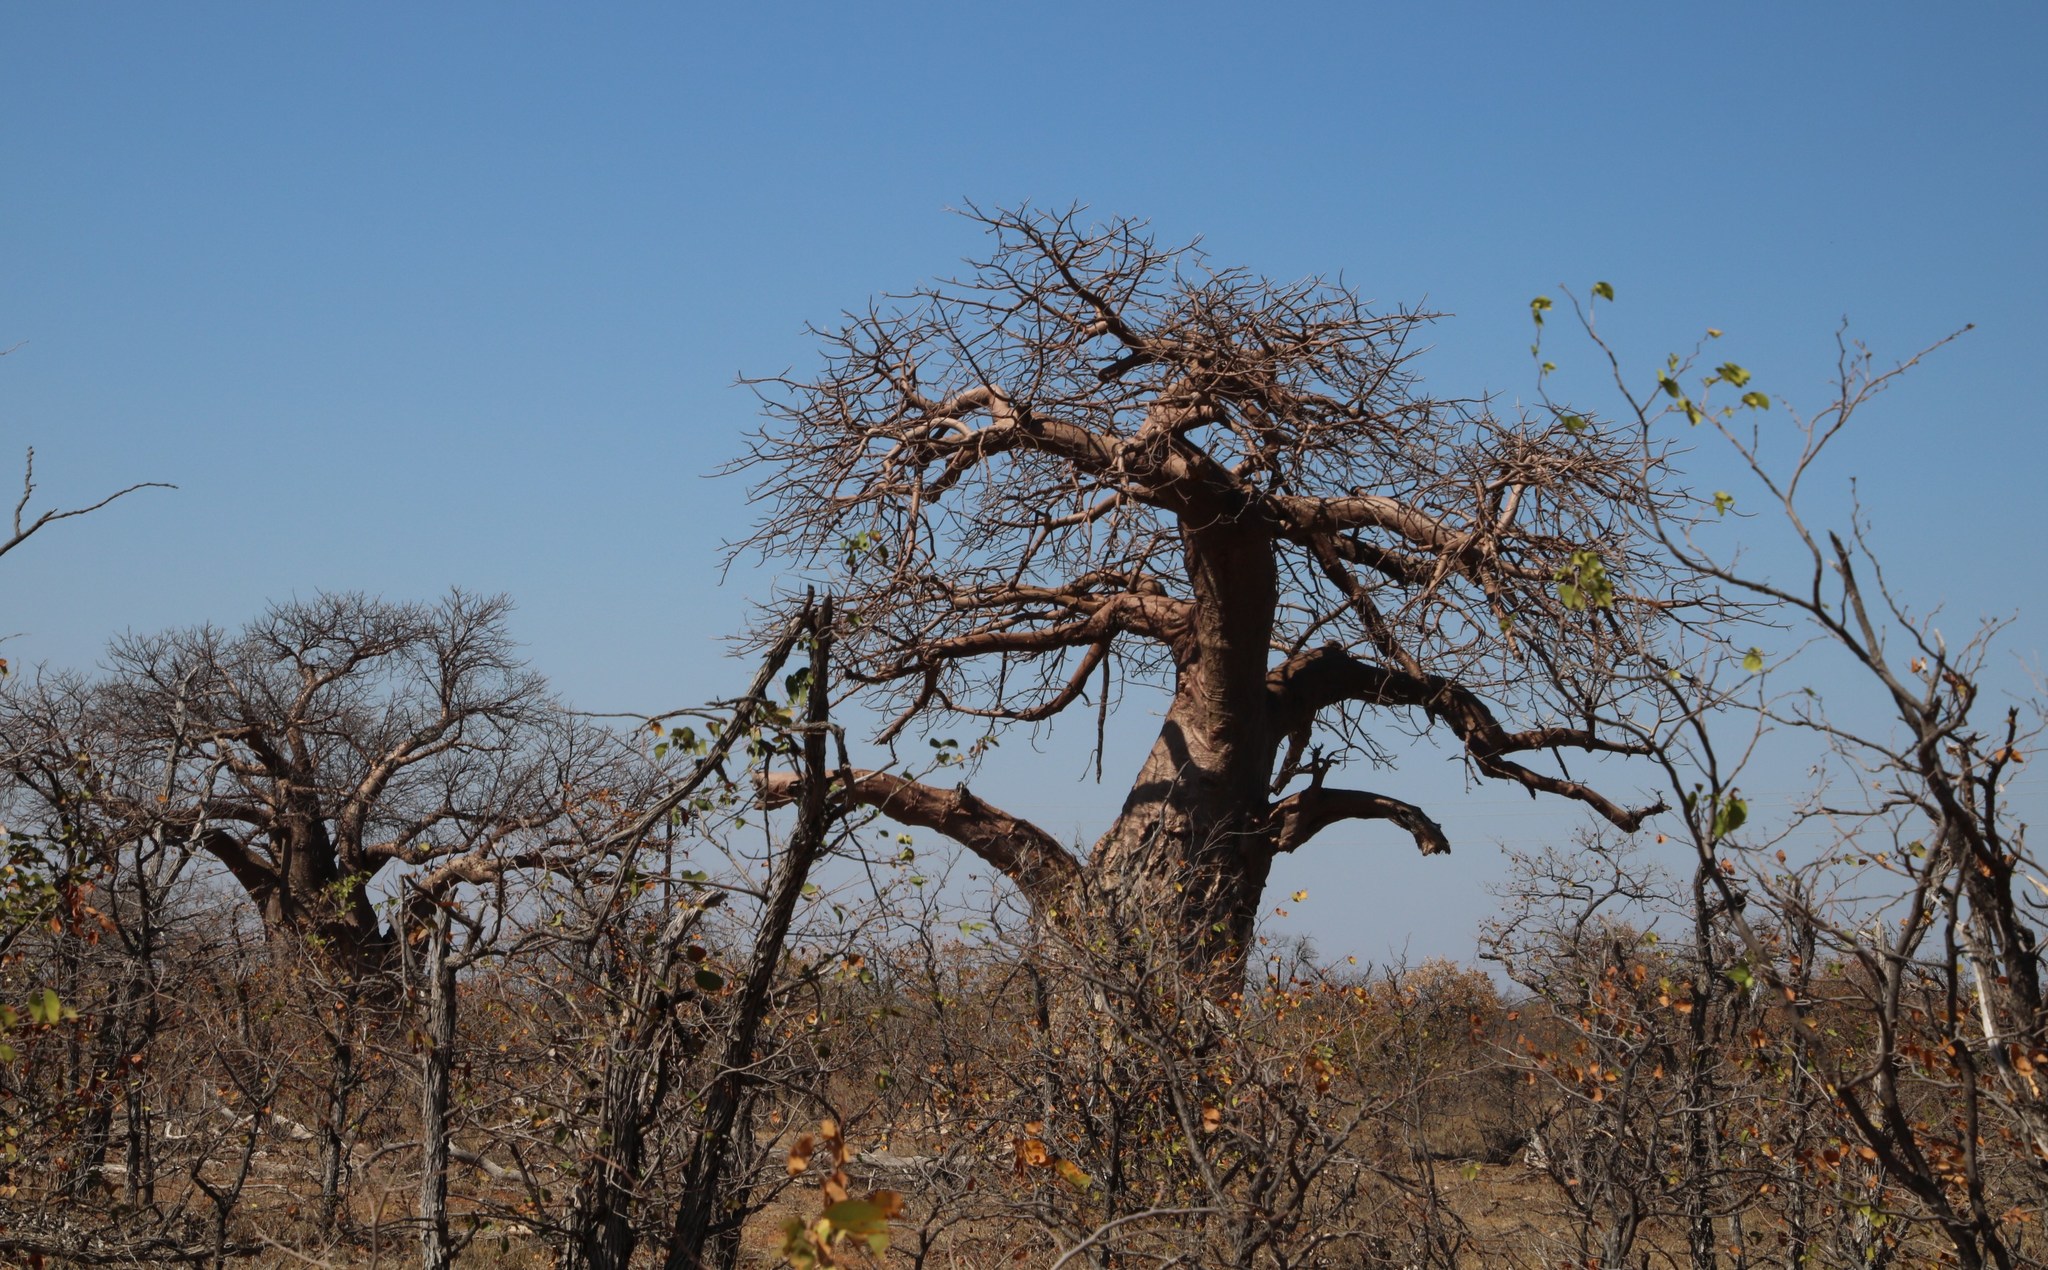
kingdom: Plantae
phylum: Tracheophyta
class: Magnoliopsida
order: Malvales
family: Malvaceae
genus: Adansonia
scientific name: Adansonia digitata
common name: Dead-rat-tree
